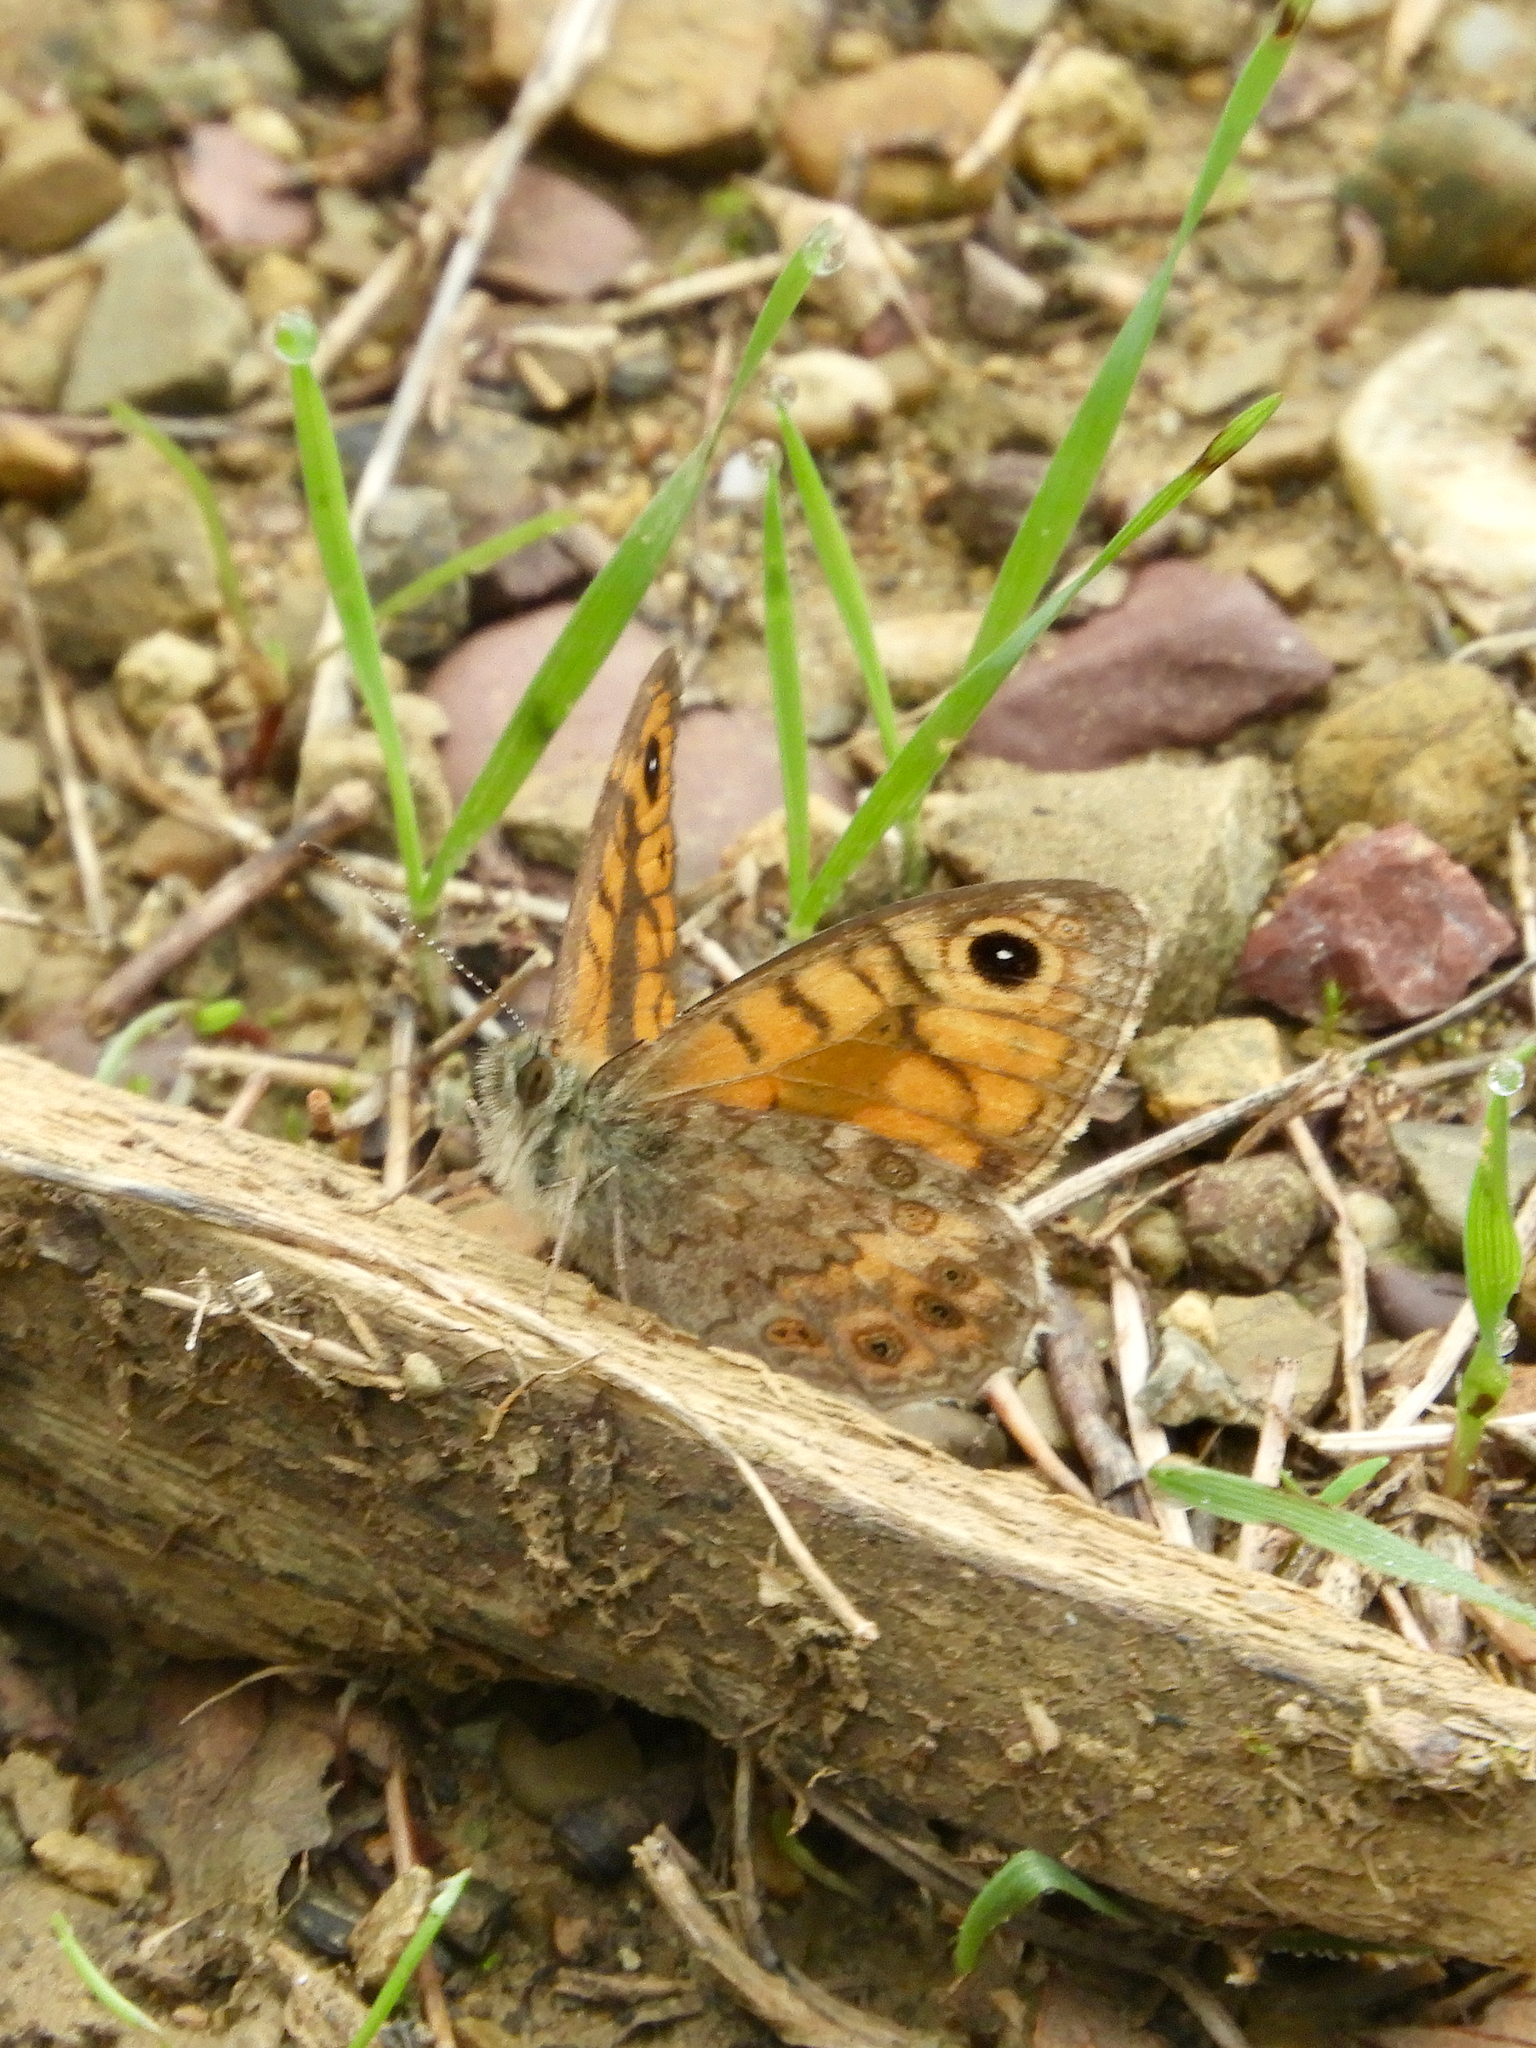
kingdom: Animalia
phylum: Arthropoda
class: Insecta
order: Lepidoptera
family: Nymphalidae
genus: Pararge
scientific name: Pararge Lasiommata megera
